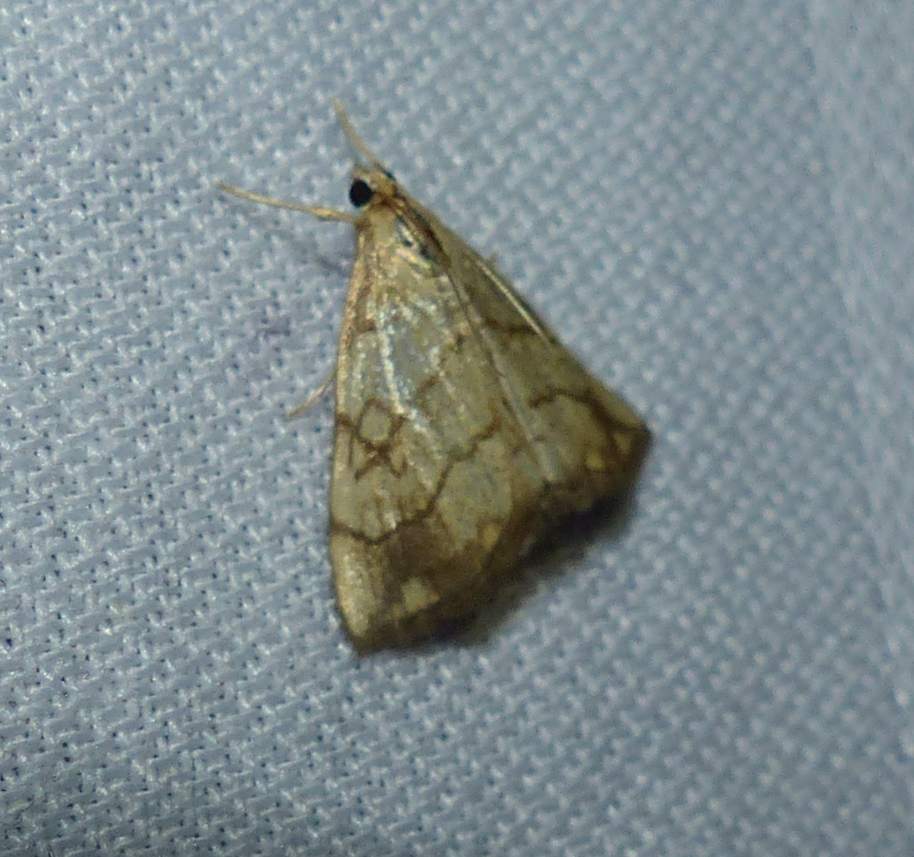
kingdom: Animalia
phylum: Arthropoda
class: Insecta
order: Lepidoptera
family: Crambidae
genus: Evergestis
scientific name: Evergestis pallidata
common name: Chequered pearl
